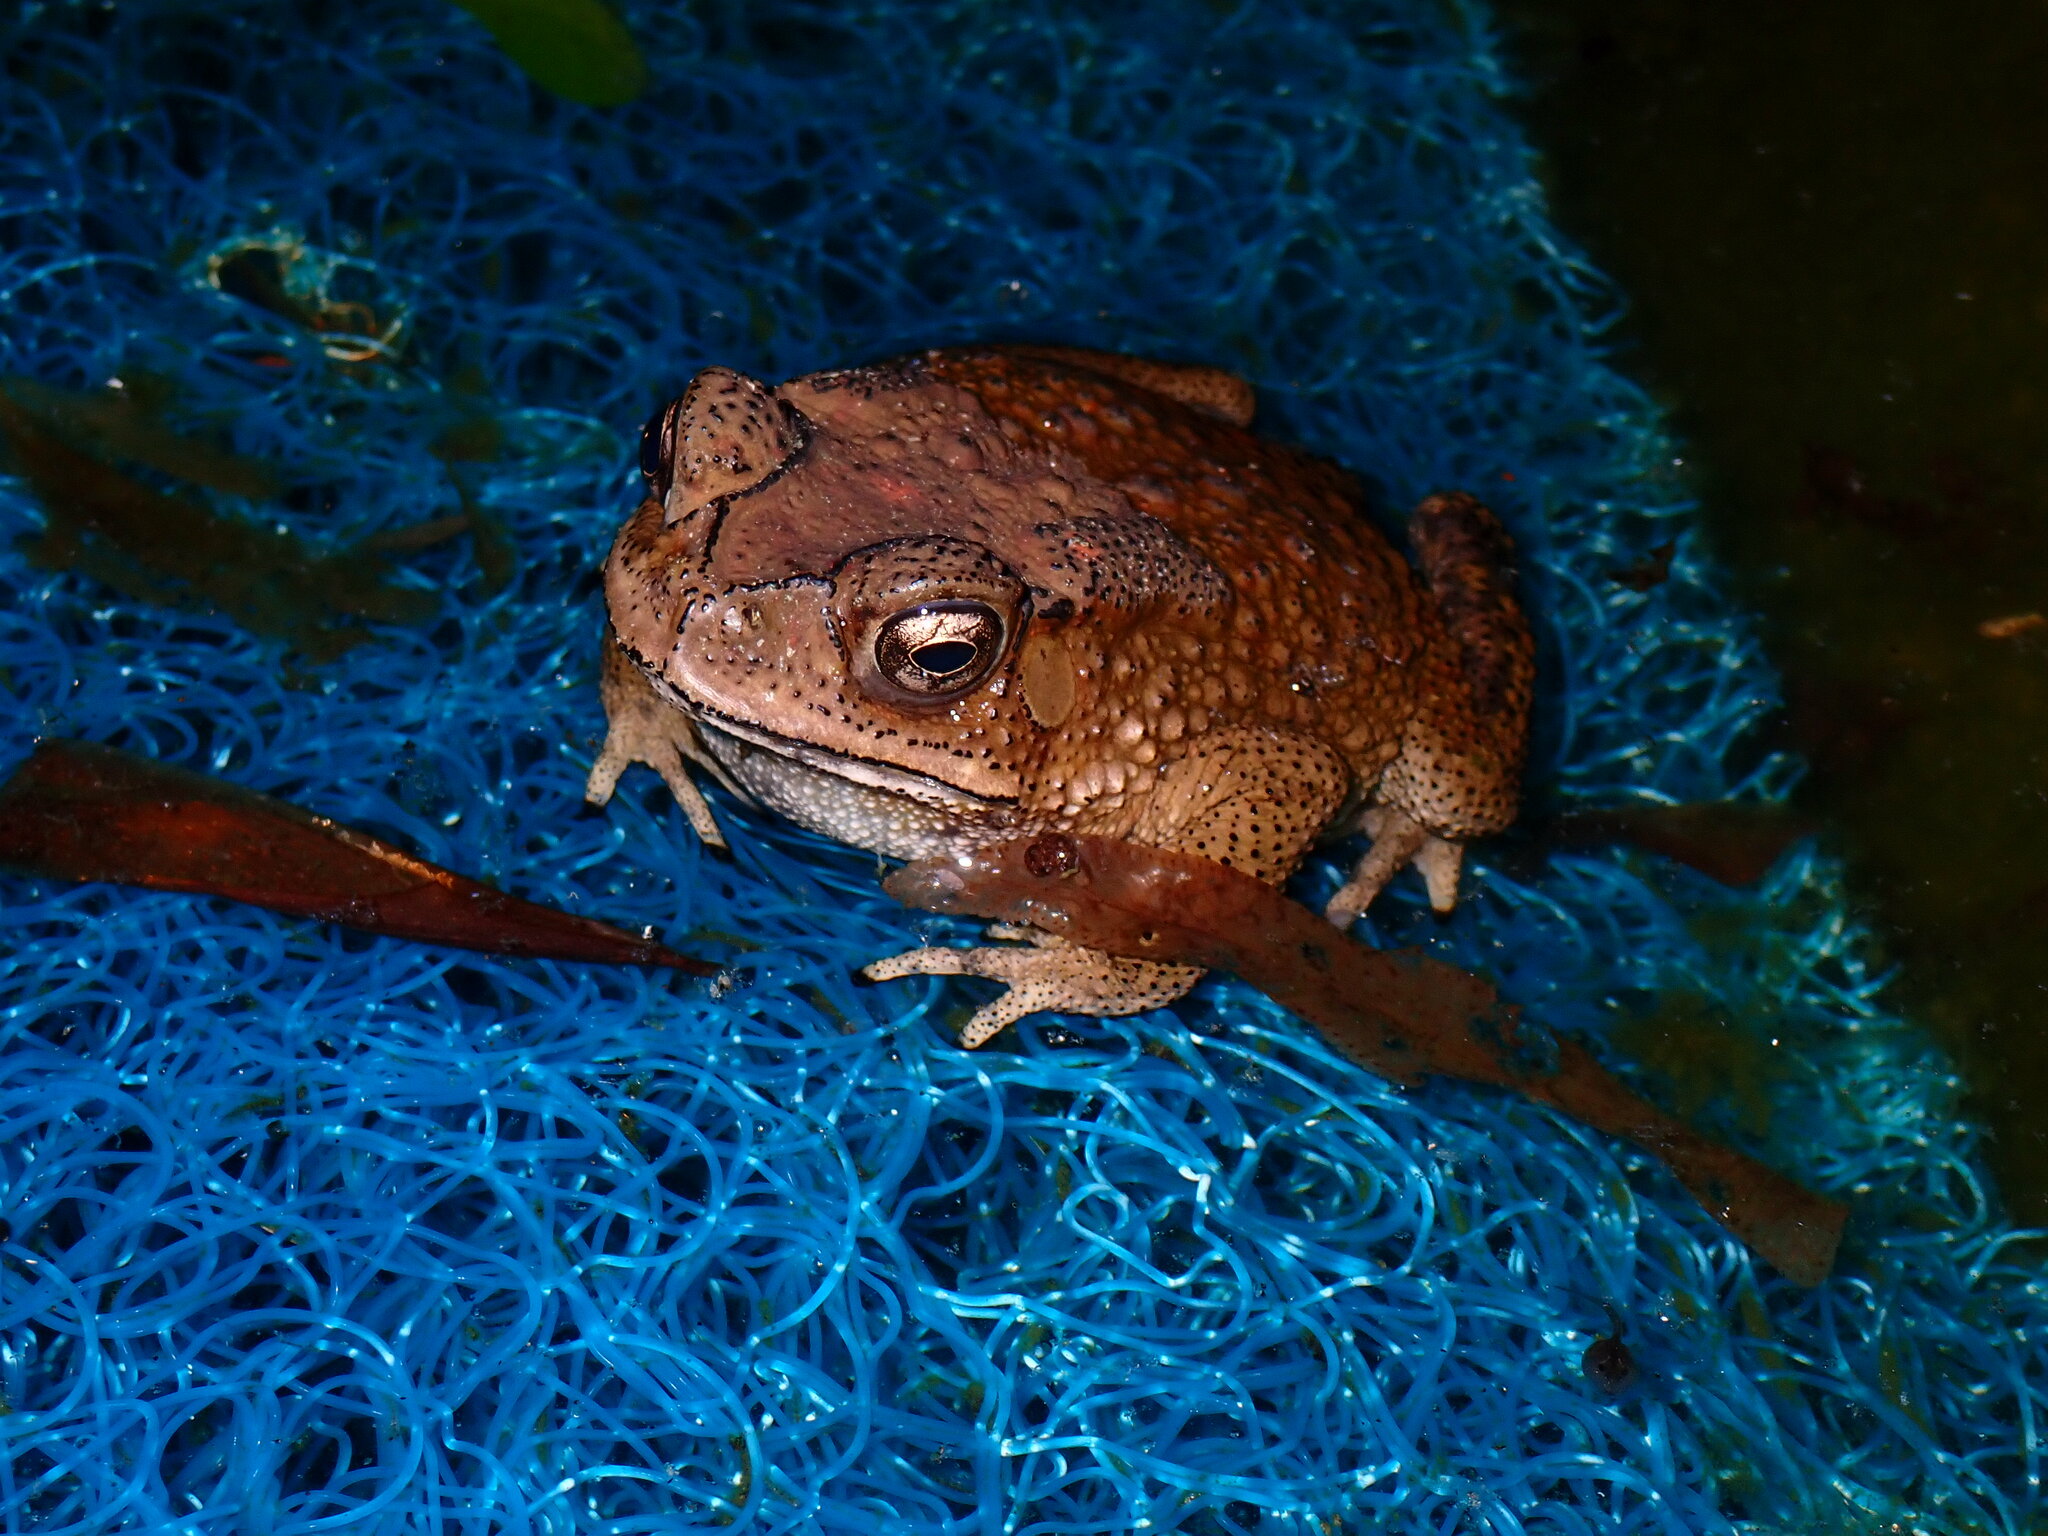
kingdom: Animalia
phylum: Chordata
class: Amphibia
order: Anura
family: Bufonidae
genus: Duttaphrynus
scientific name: Duttaphrynus melanostictus
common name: Common sunda toad
